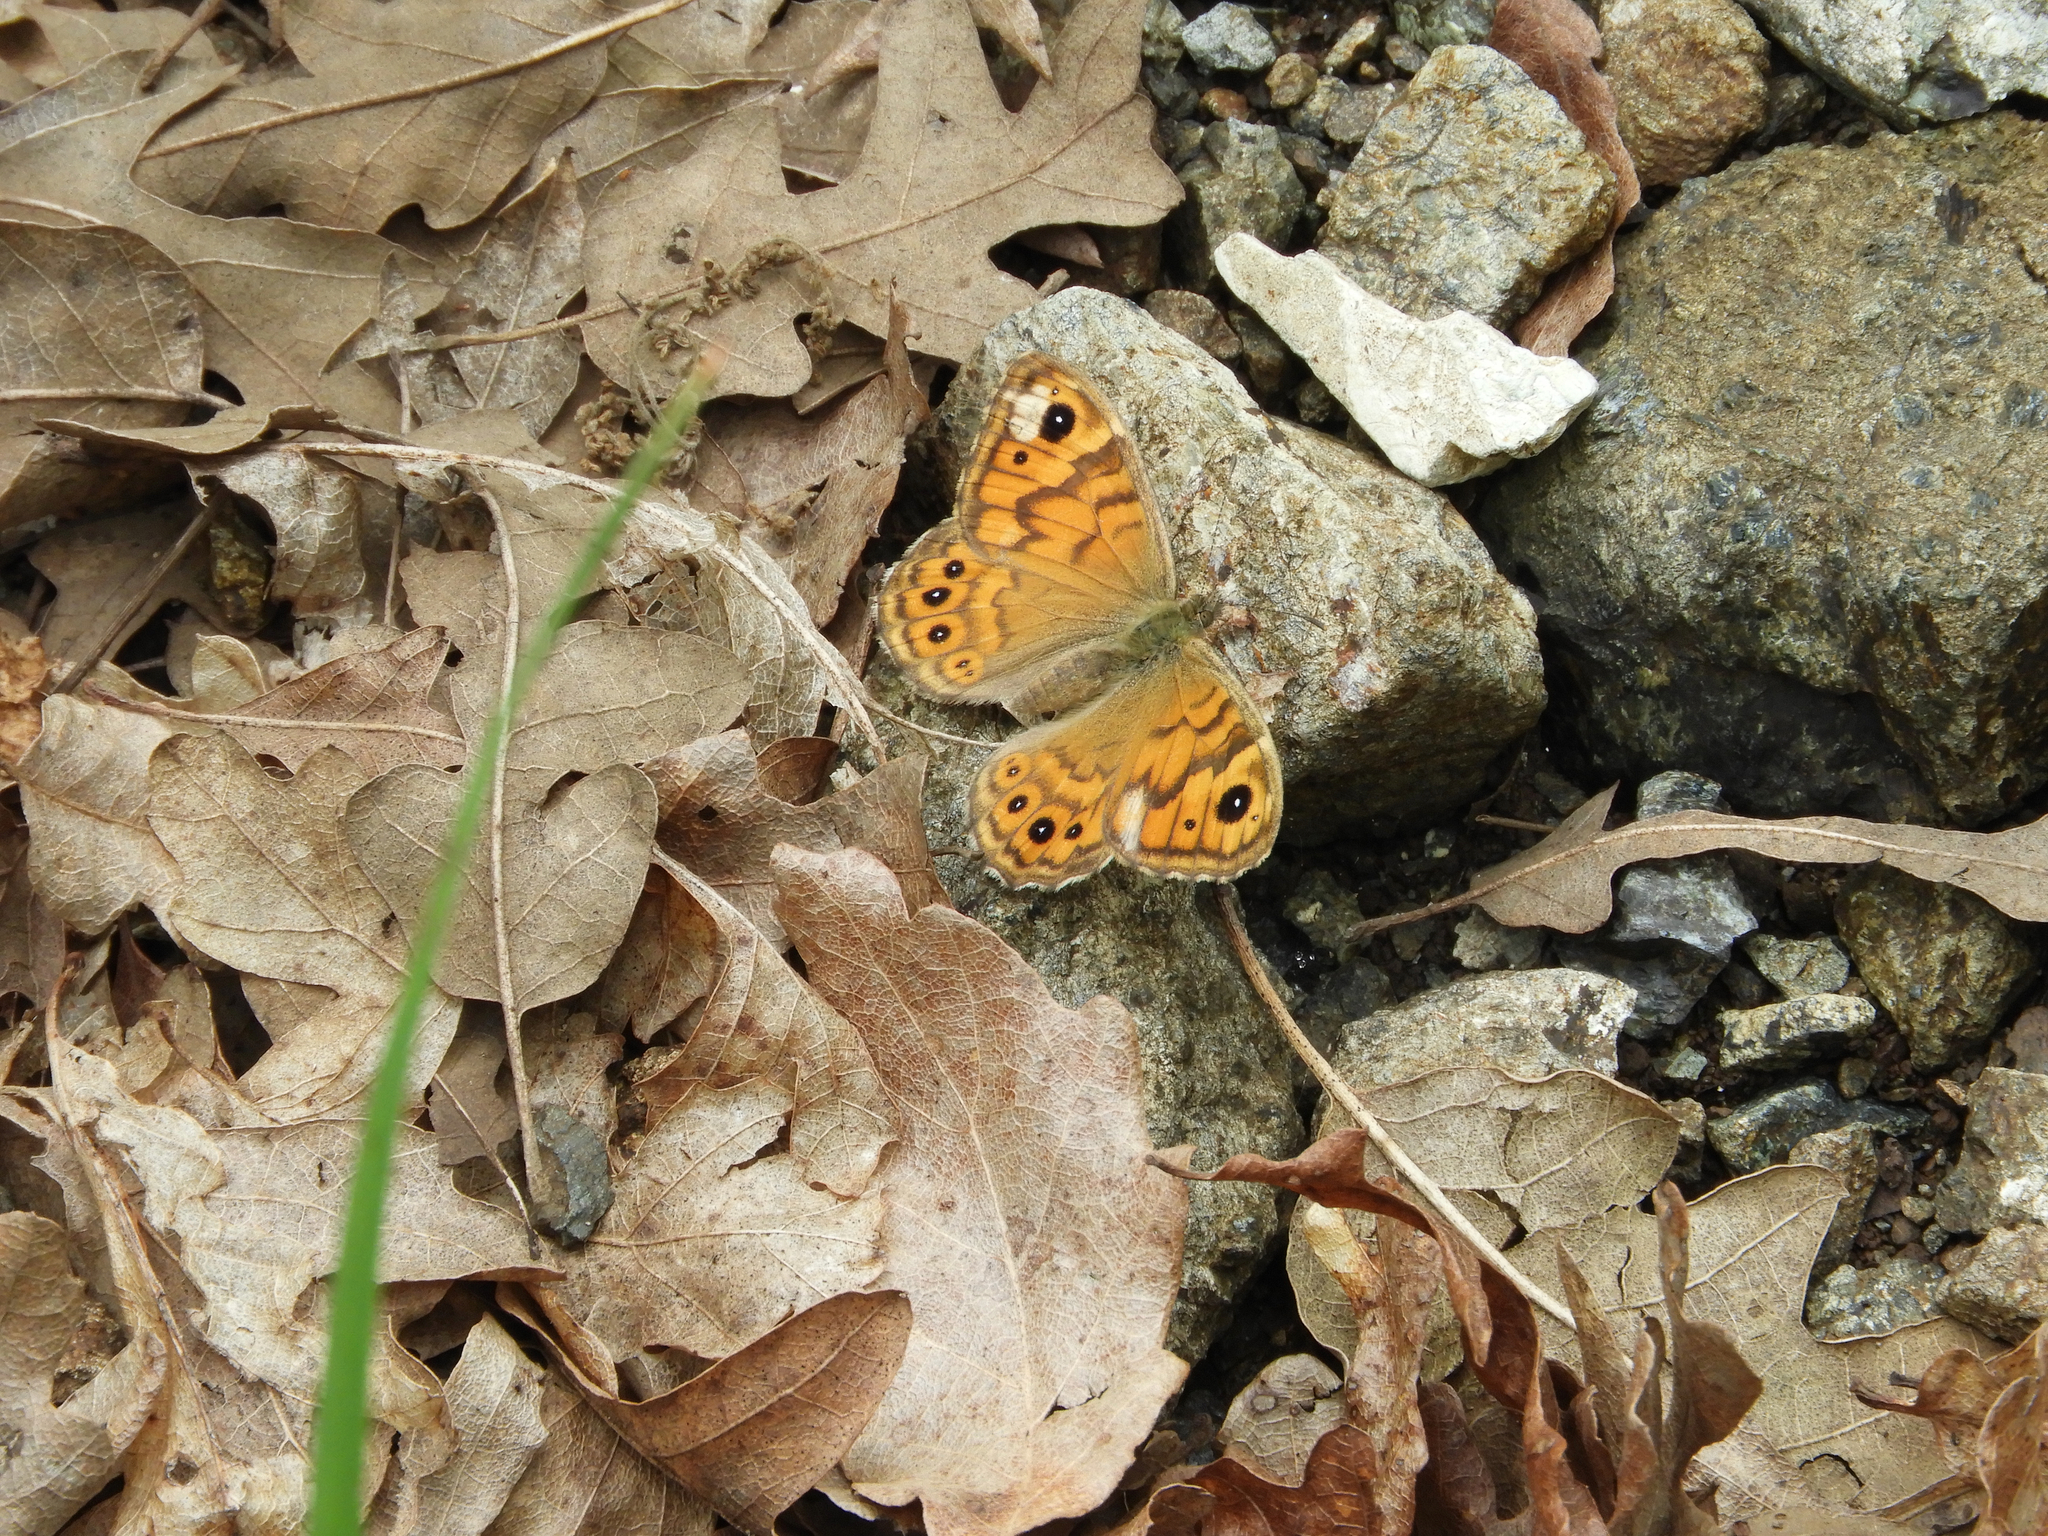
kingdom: Animalia
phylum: Arthropoda
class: Insecta
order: Lepidoptera
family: Nymphalidae
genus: Pararge
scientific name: Pararge Lasiommata megera
